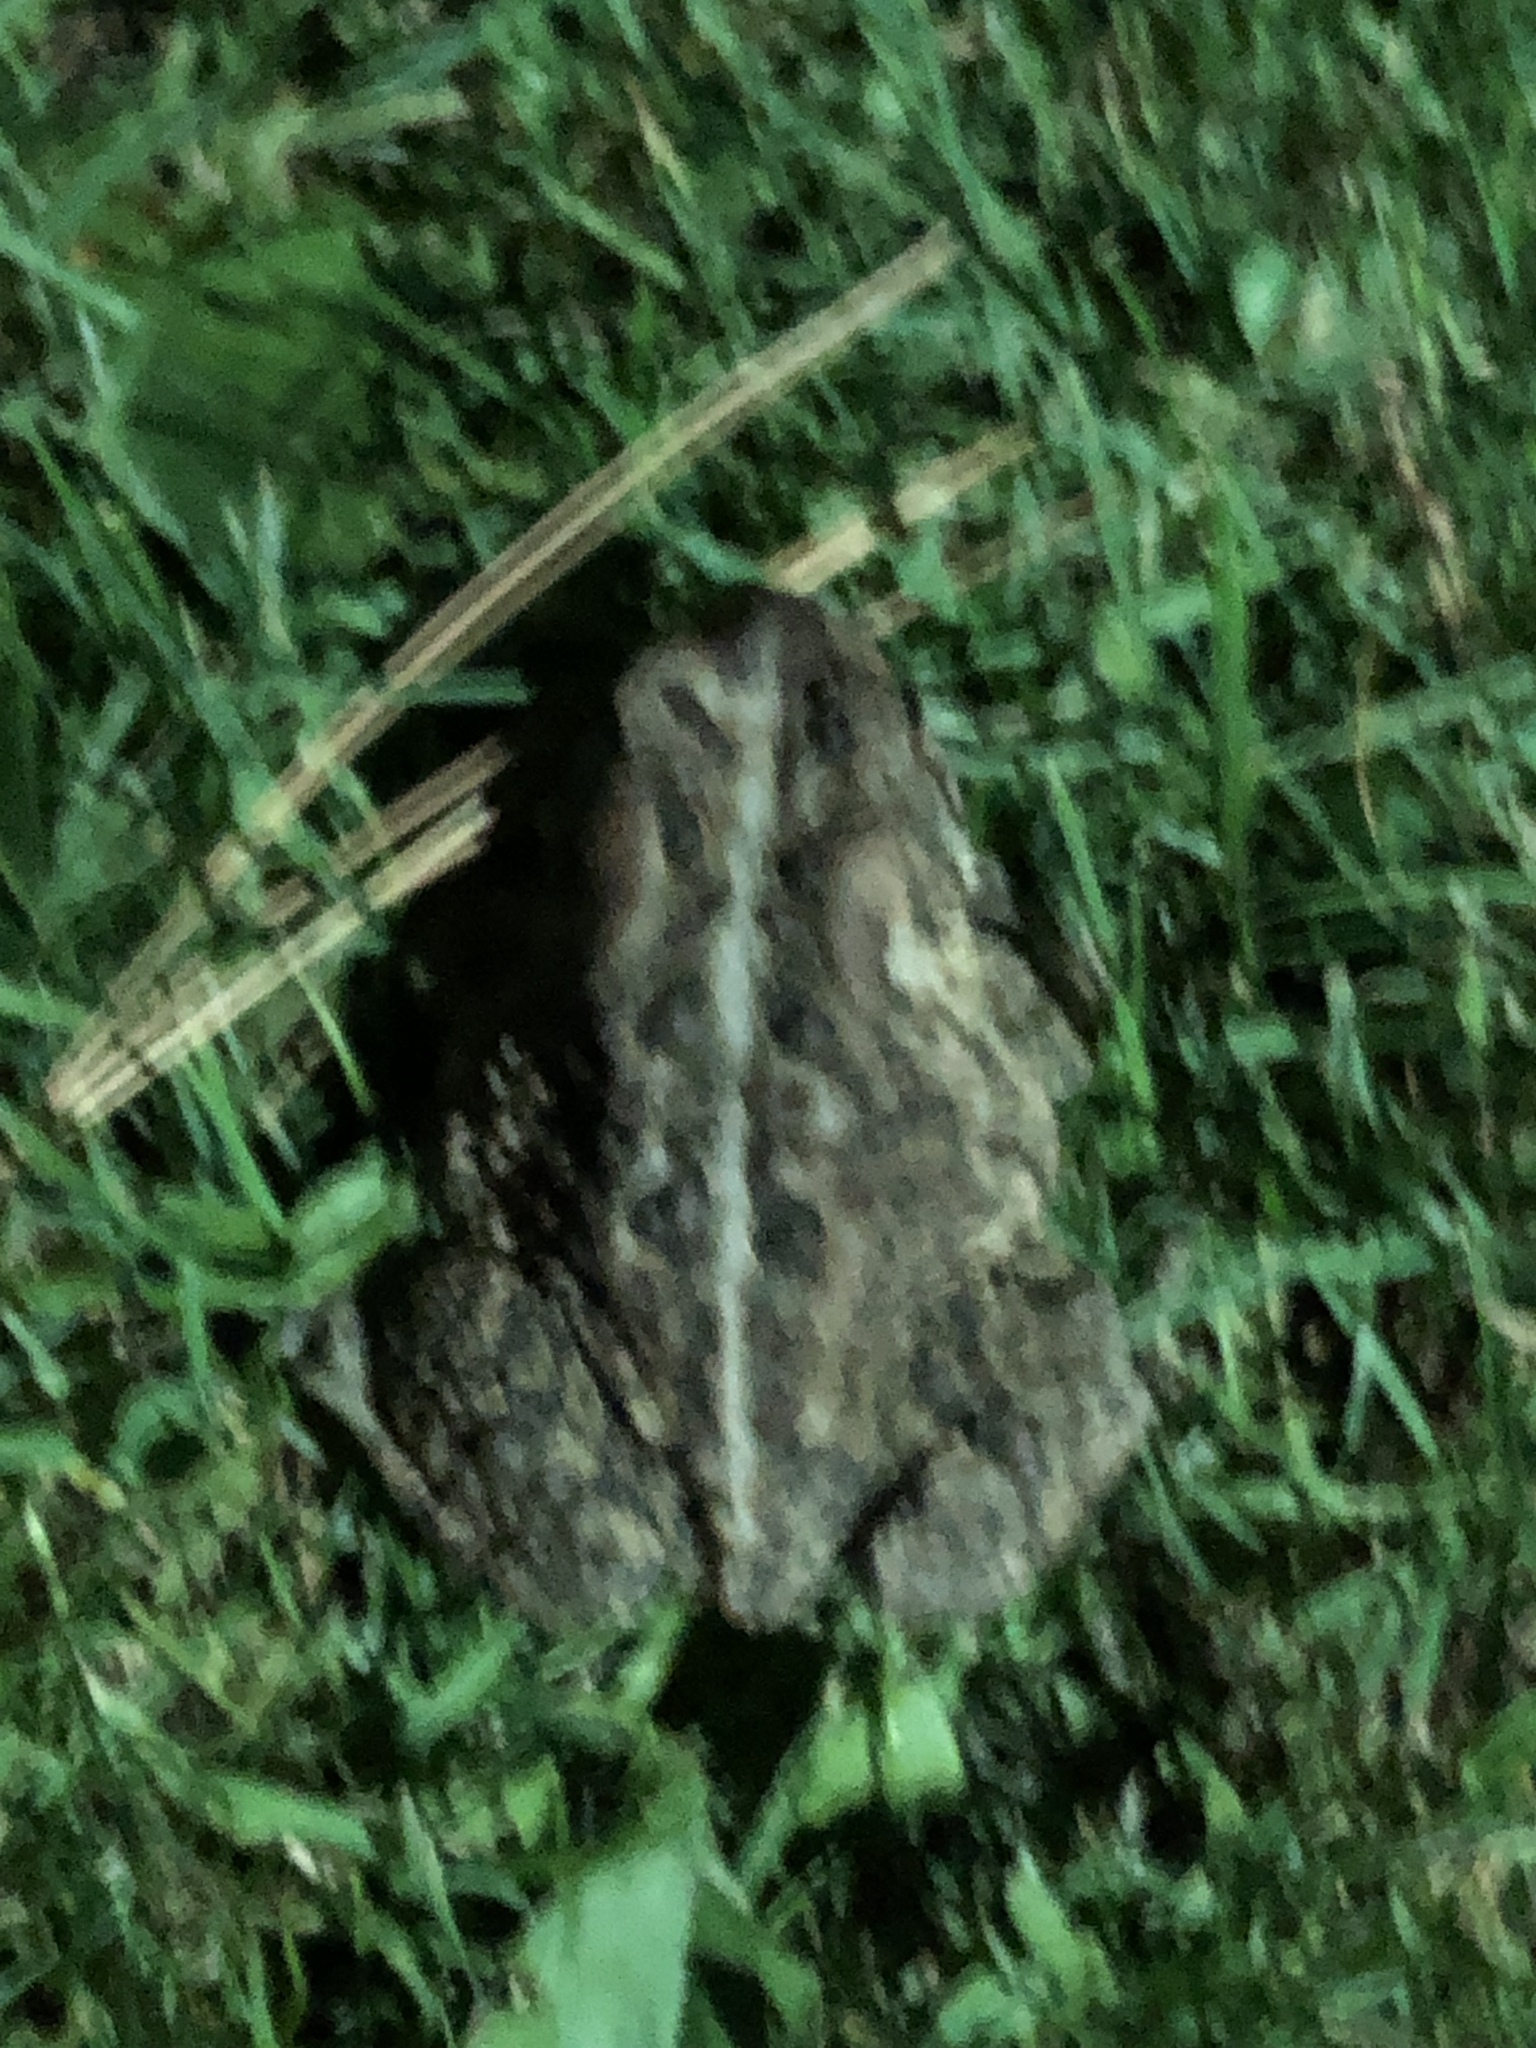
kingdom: Animalia
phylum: Chordata
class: Amphibia
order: Anura
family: Bufonidae
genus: Anaxyrus
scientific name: Anaxyrus americanus
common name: American toad
